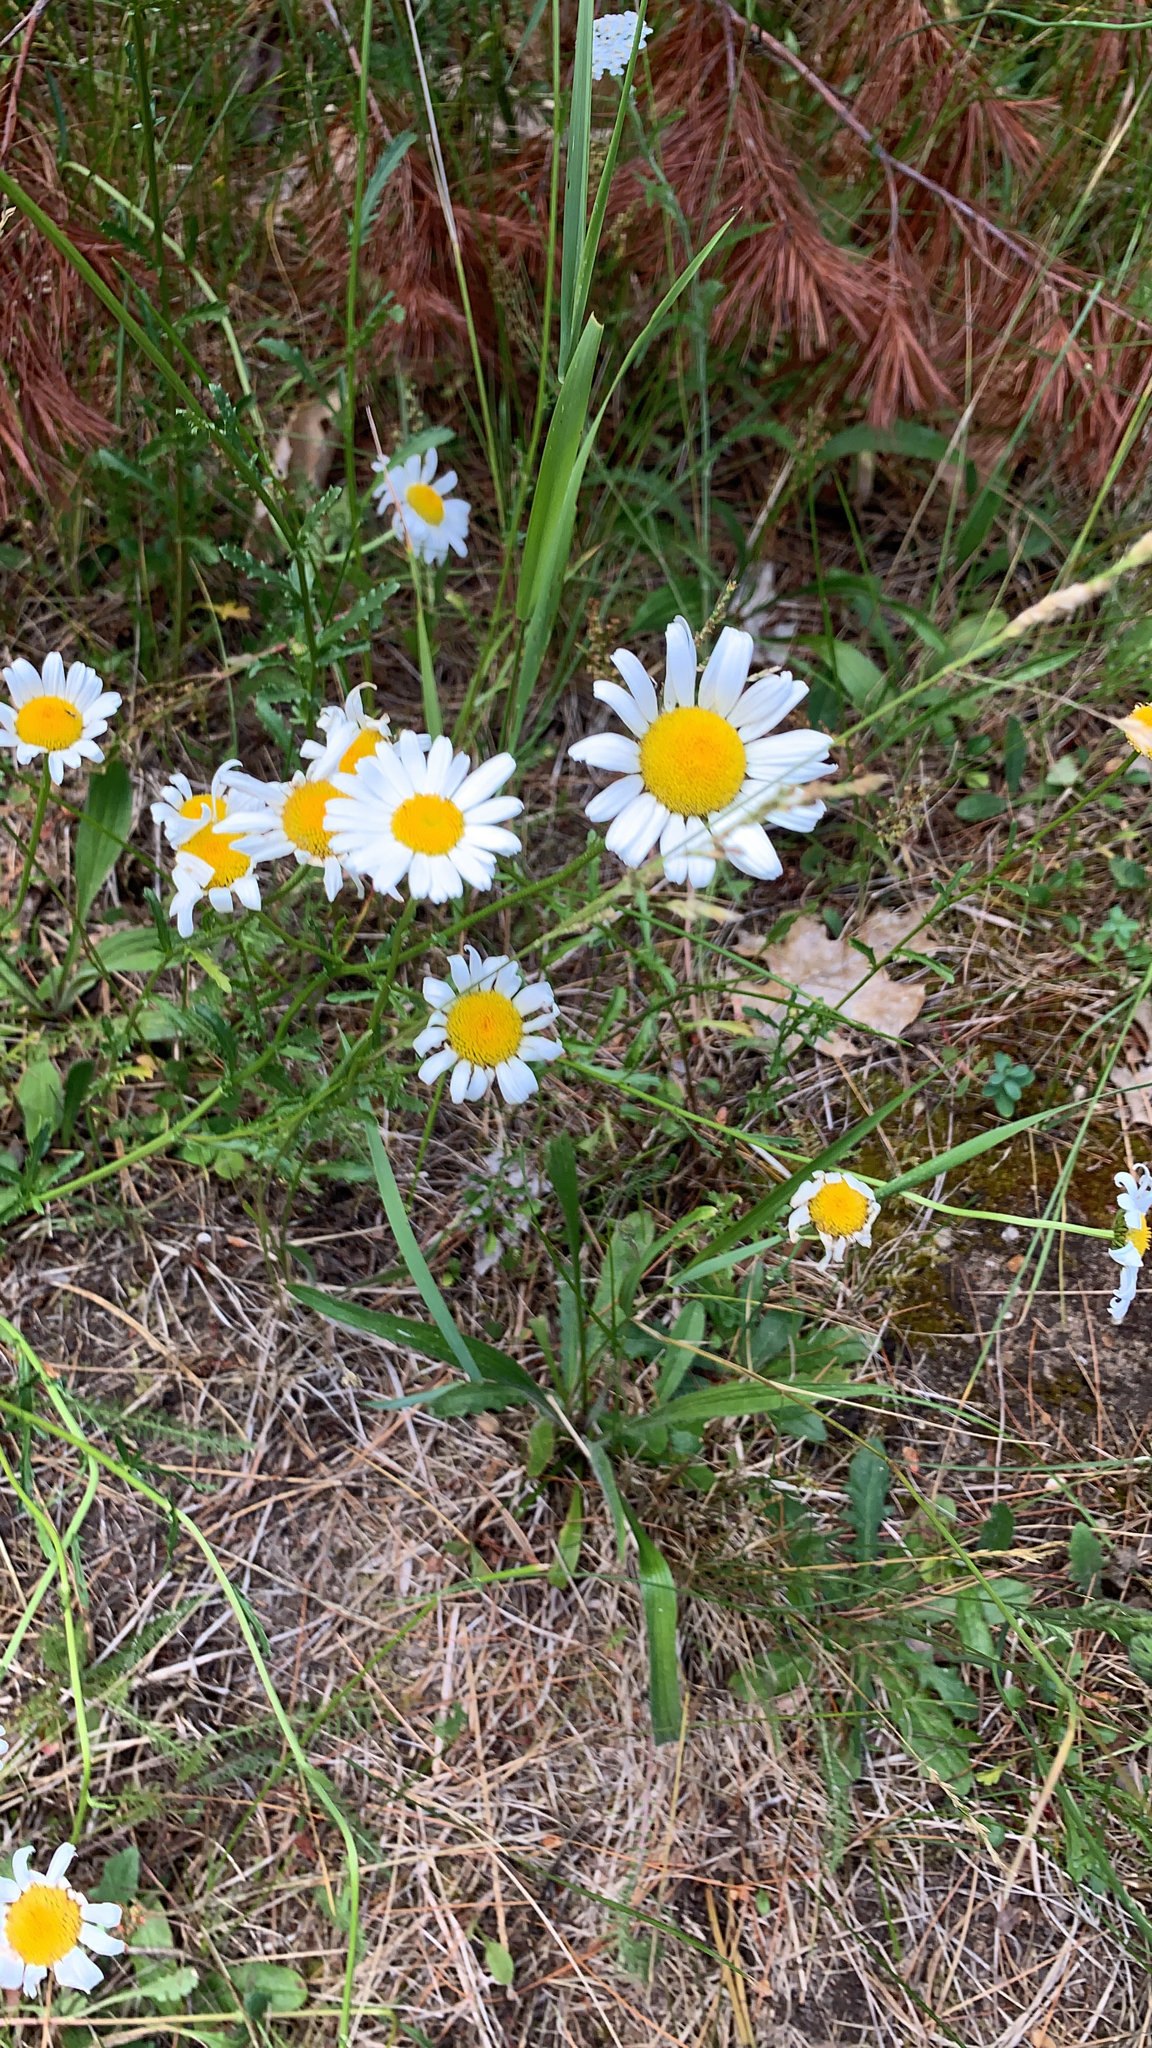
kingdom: Plantae
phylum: Tracheophyta
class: Magnoliopsida
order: Asterales
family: Asteraceae
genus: Leucanthemum
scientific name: Leucanthemum vulgare
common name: Oxeye daisy
